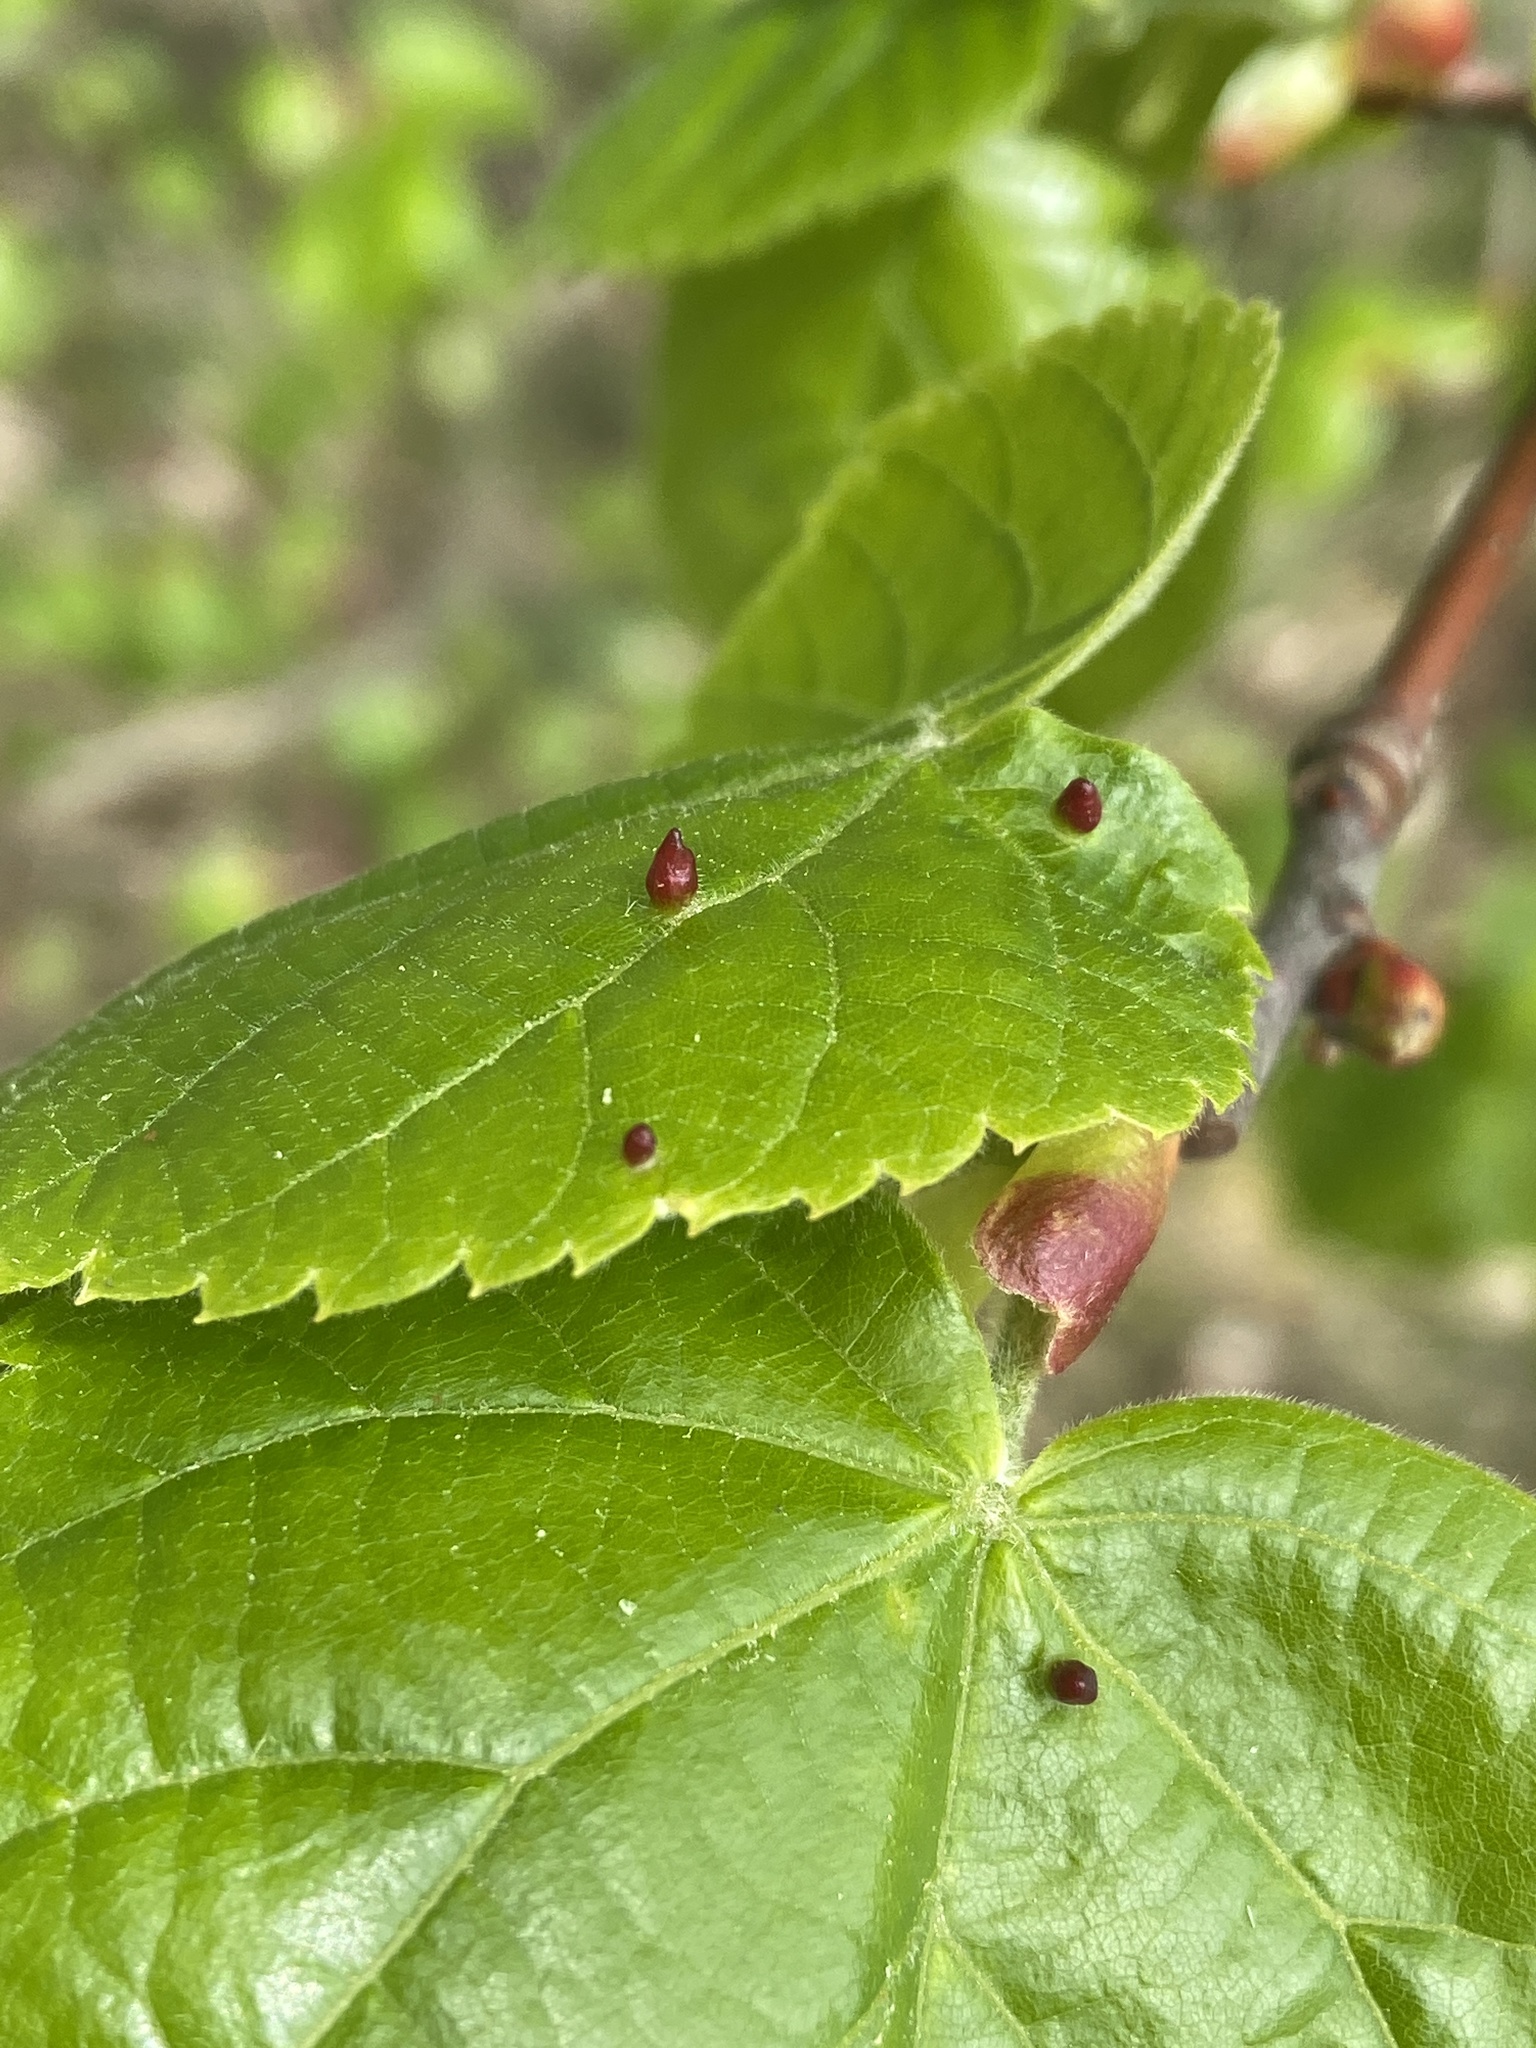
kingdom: Animalia
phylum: Arthropoda
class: Arachnida
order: Trombidiformes
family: Eriophyidae
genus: Eriophyes
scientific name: Eriophyes tiliae
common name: Red nail gall mite
